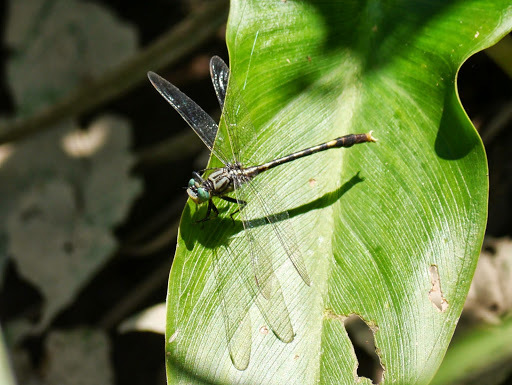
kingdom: Animalia
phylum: Arthropoda
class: Insecta
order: Odonata
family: Gomphidae
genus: Arigomphus
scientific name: Arigomphus villosipes
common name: Unicorn clubtail
